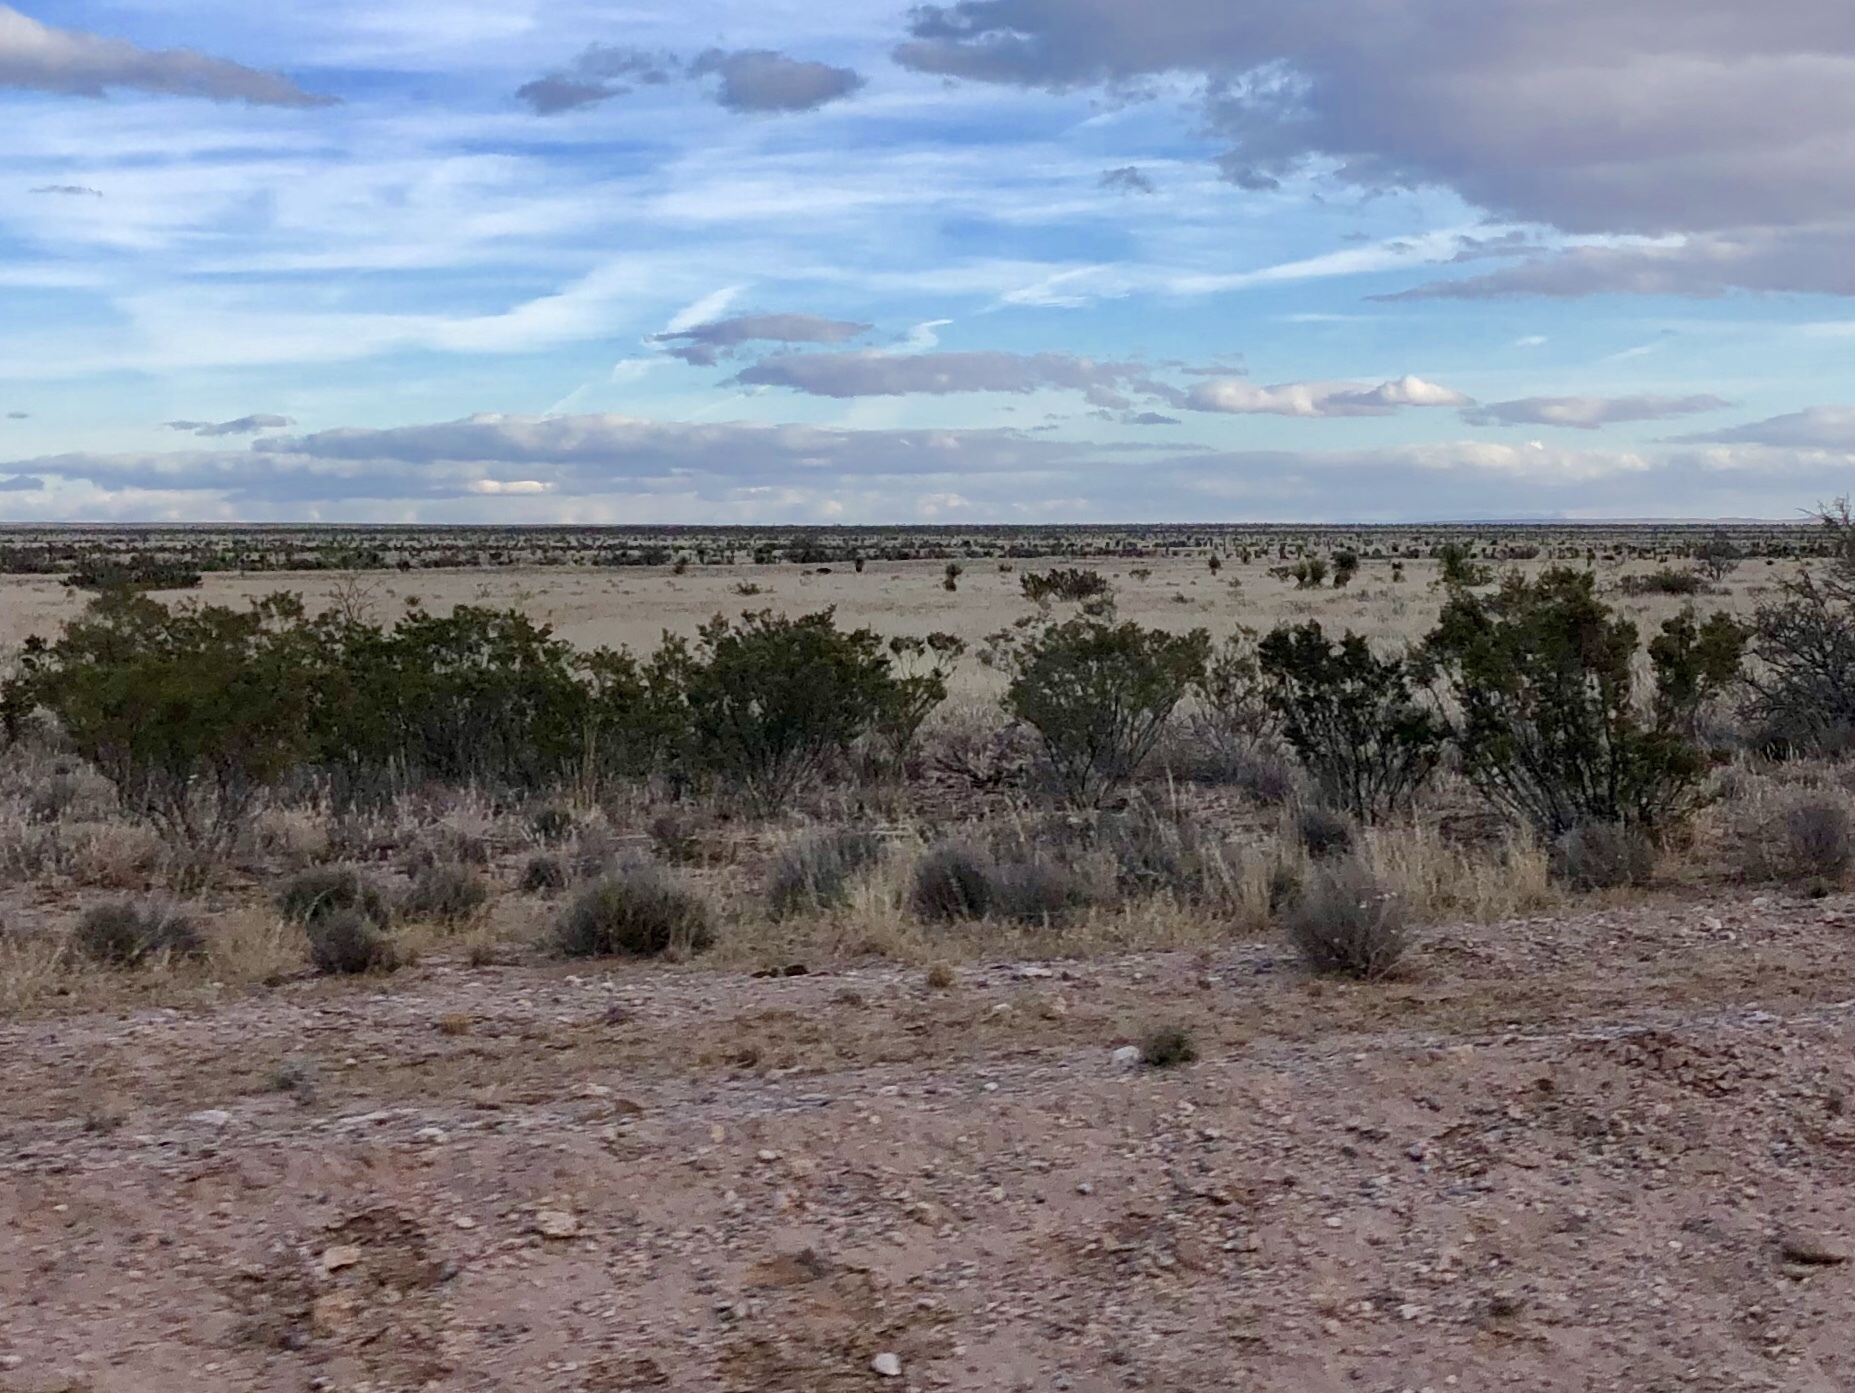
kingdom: Plantae
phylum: Tracheophyta
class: Magnoliopsida
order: Zygophyllales
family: Zygophyllaceae
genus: Larrea
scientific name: Larrea tridentata
